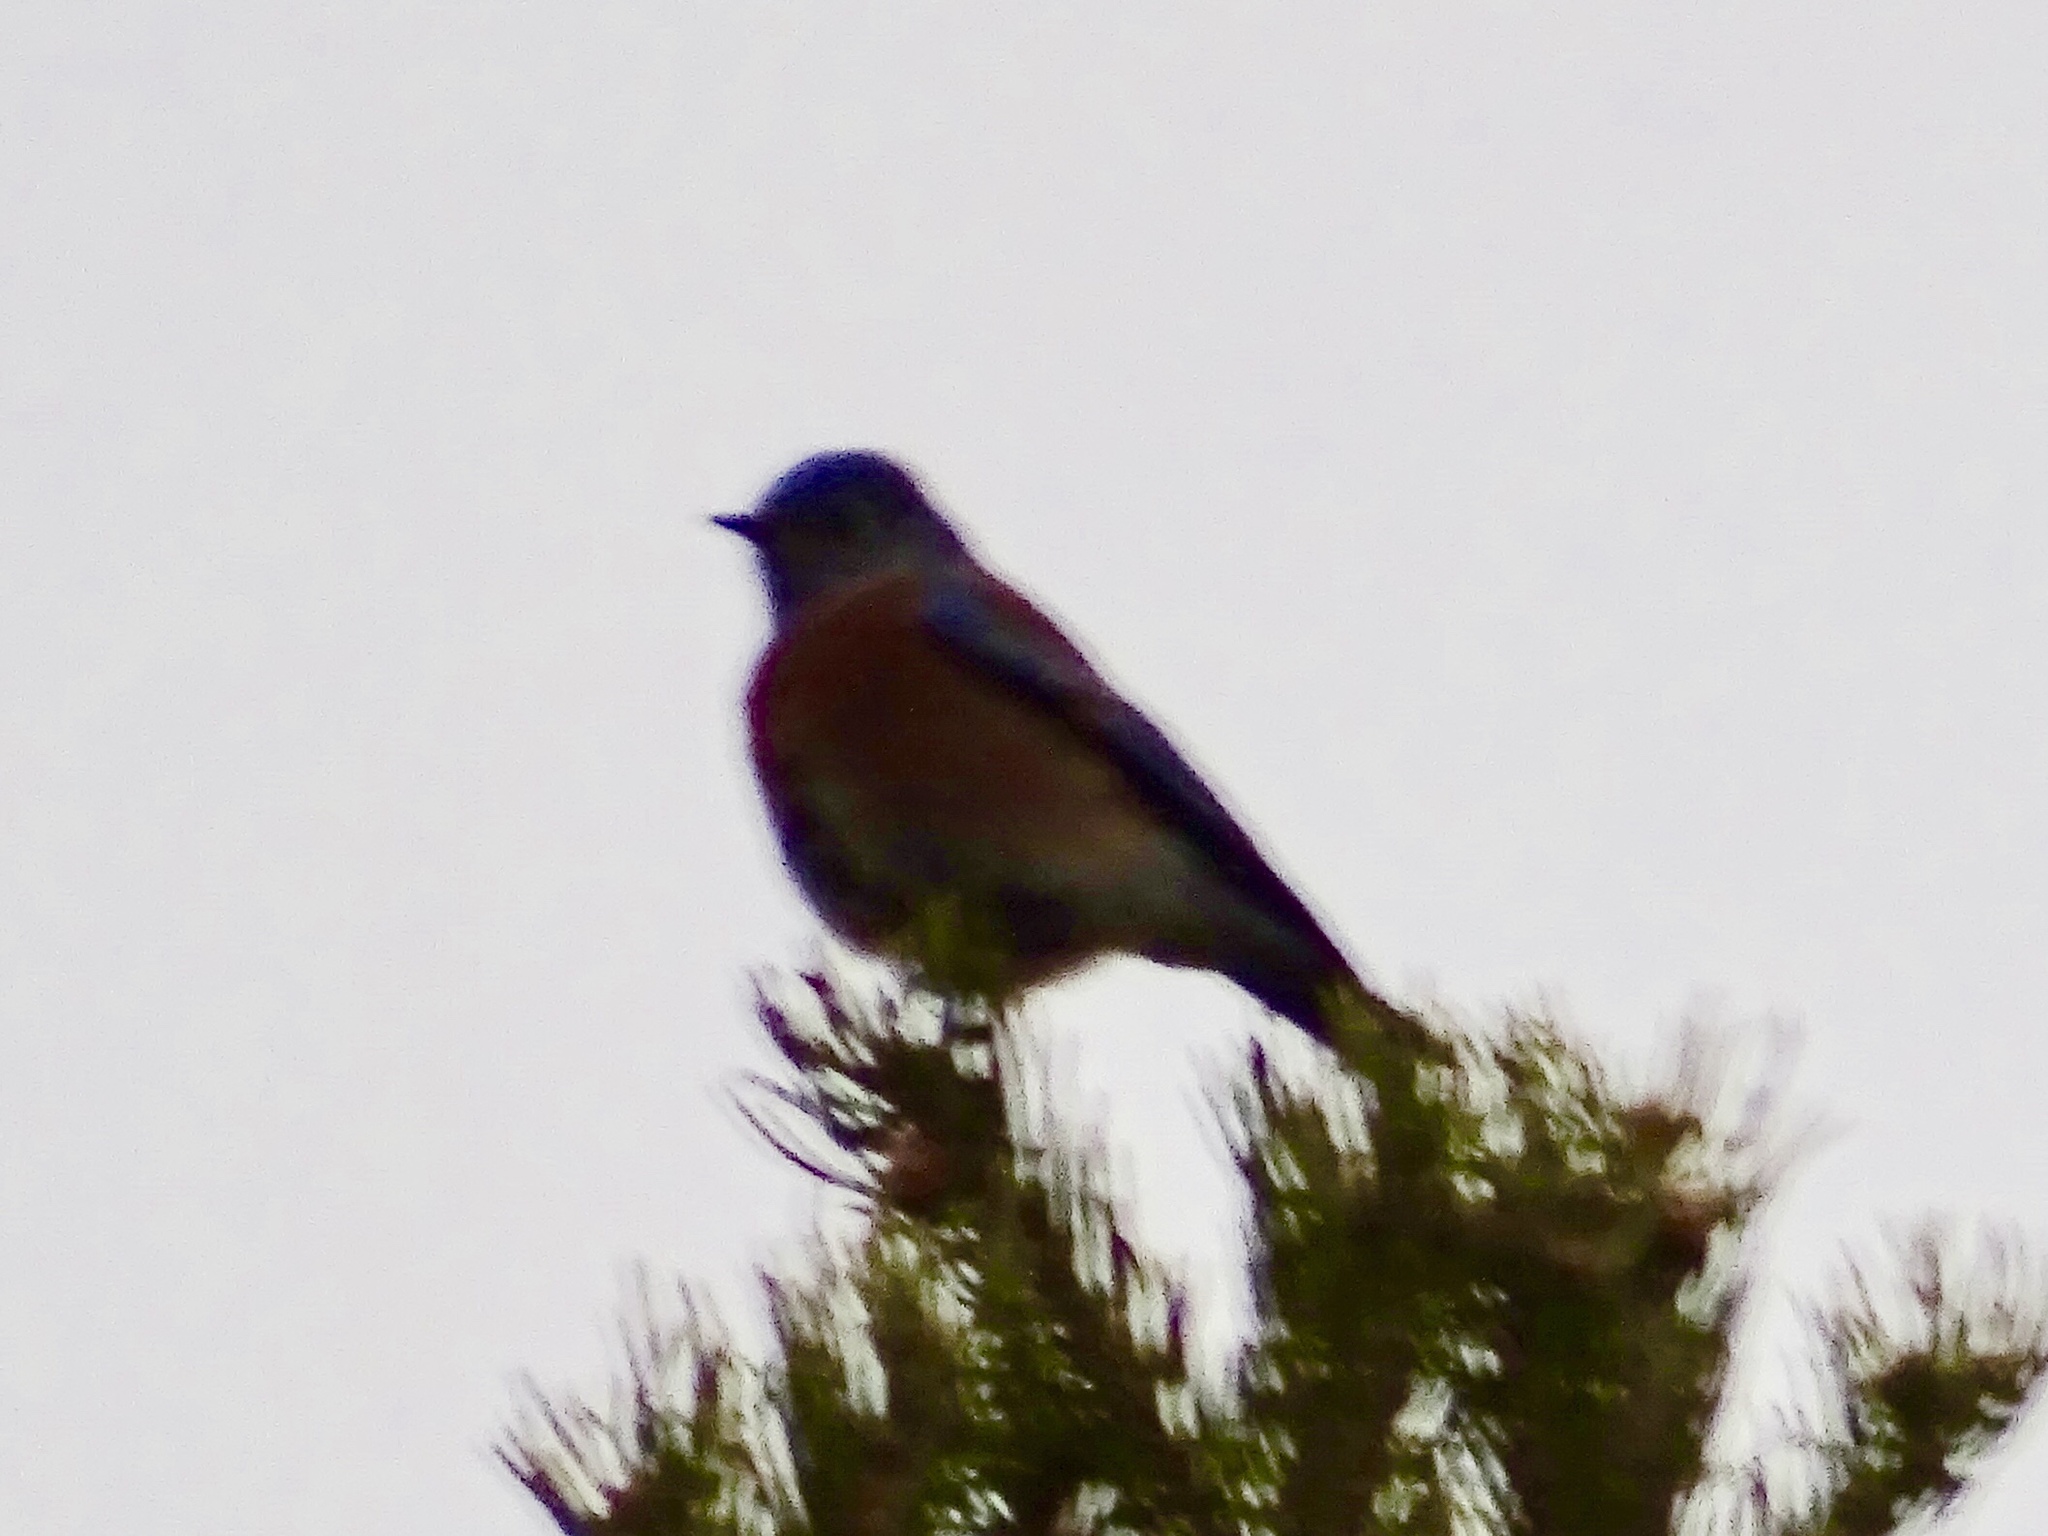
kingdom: Animalia
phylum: Chordata
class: Aves
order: Passeriformes
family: Turdidae
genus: Sialia
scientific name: Sialia mexicana
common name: Western bluebird
